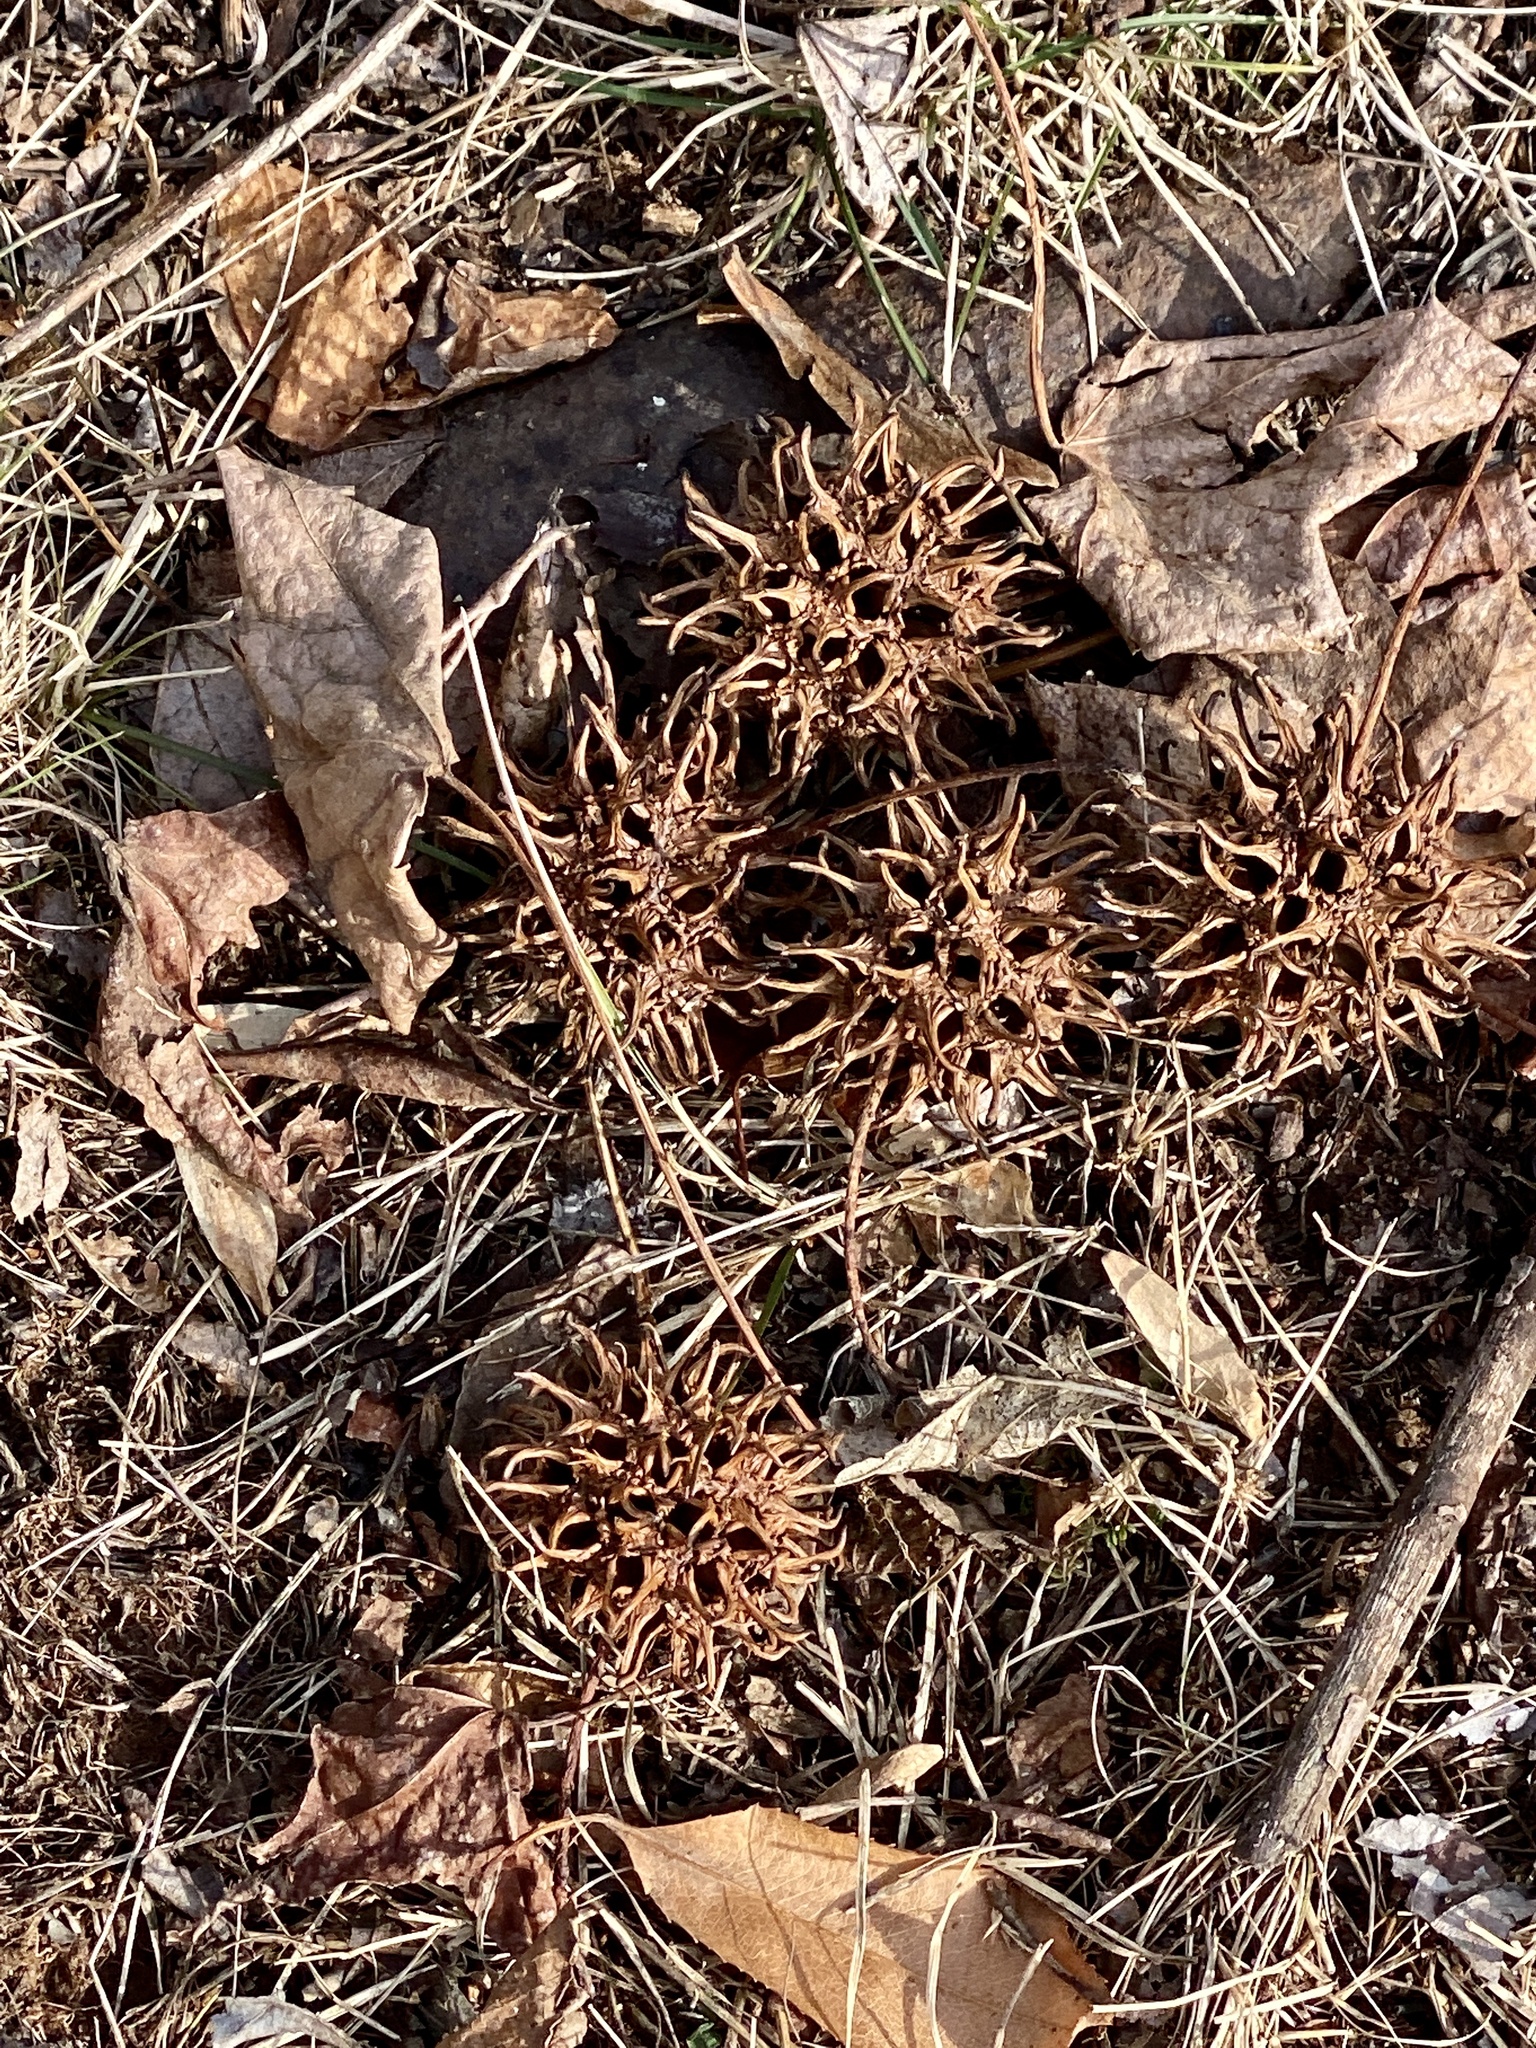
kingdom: Plantae
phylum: Tracheophyta
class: Magnoliopsida
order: Saxifragales
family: Altingiaceae
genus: Liquidambar
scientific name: Liquidambar styraciflua
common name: Sweet gum
